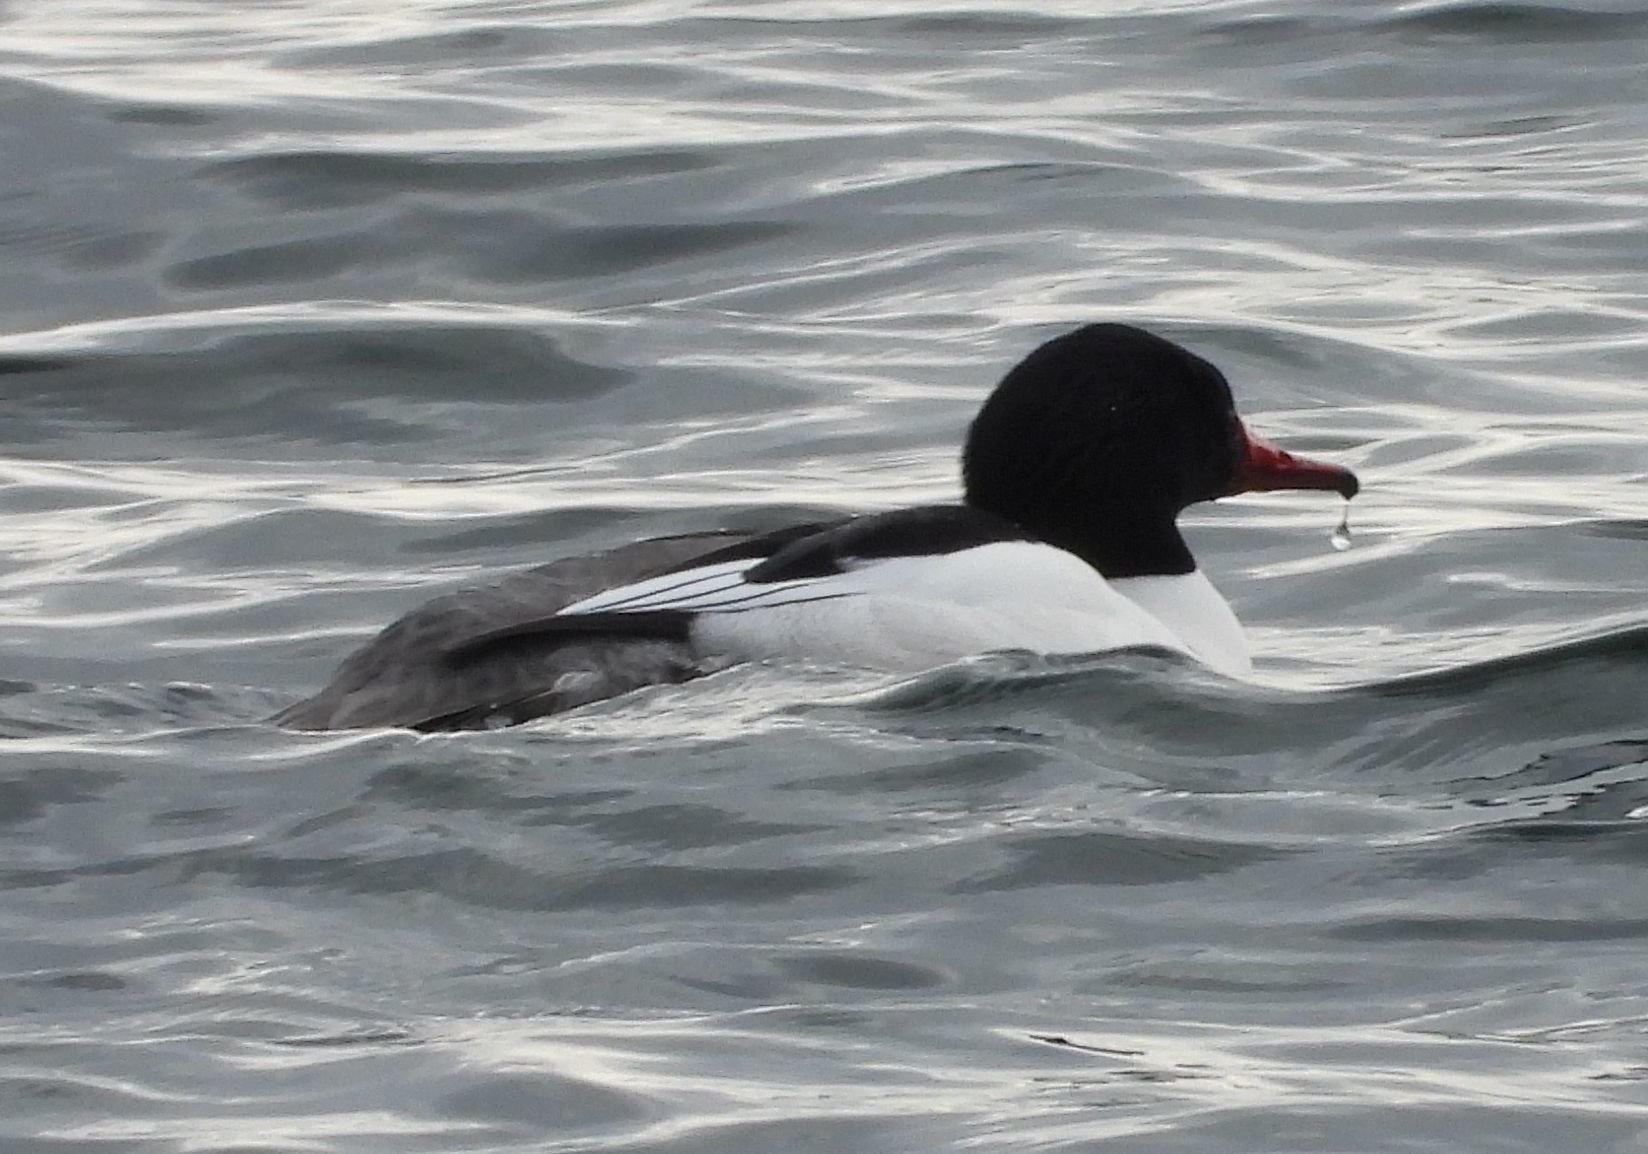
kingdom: Animalia
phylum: Chordata
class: Aves
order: Anseriformes
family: Anatidae
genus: Mergus
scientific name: Mergus merganser
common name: Common merganser
